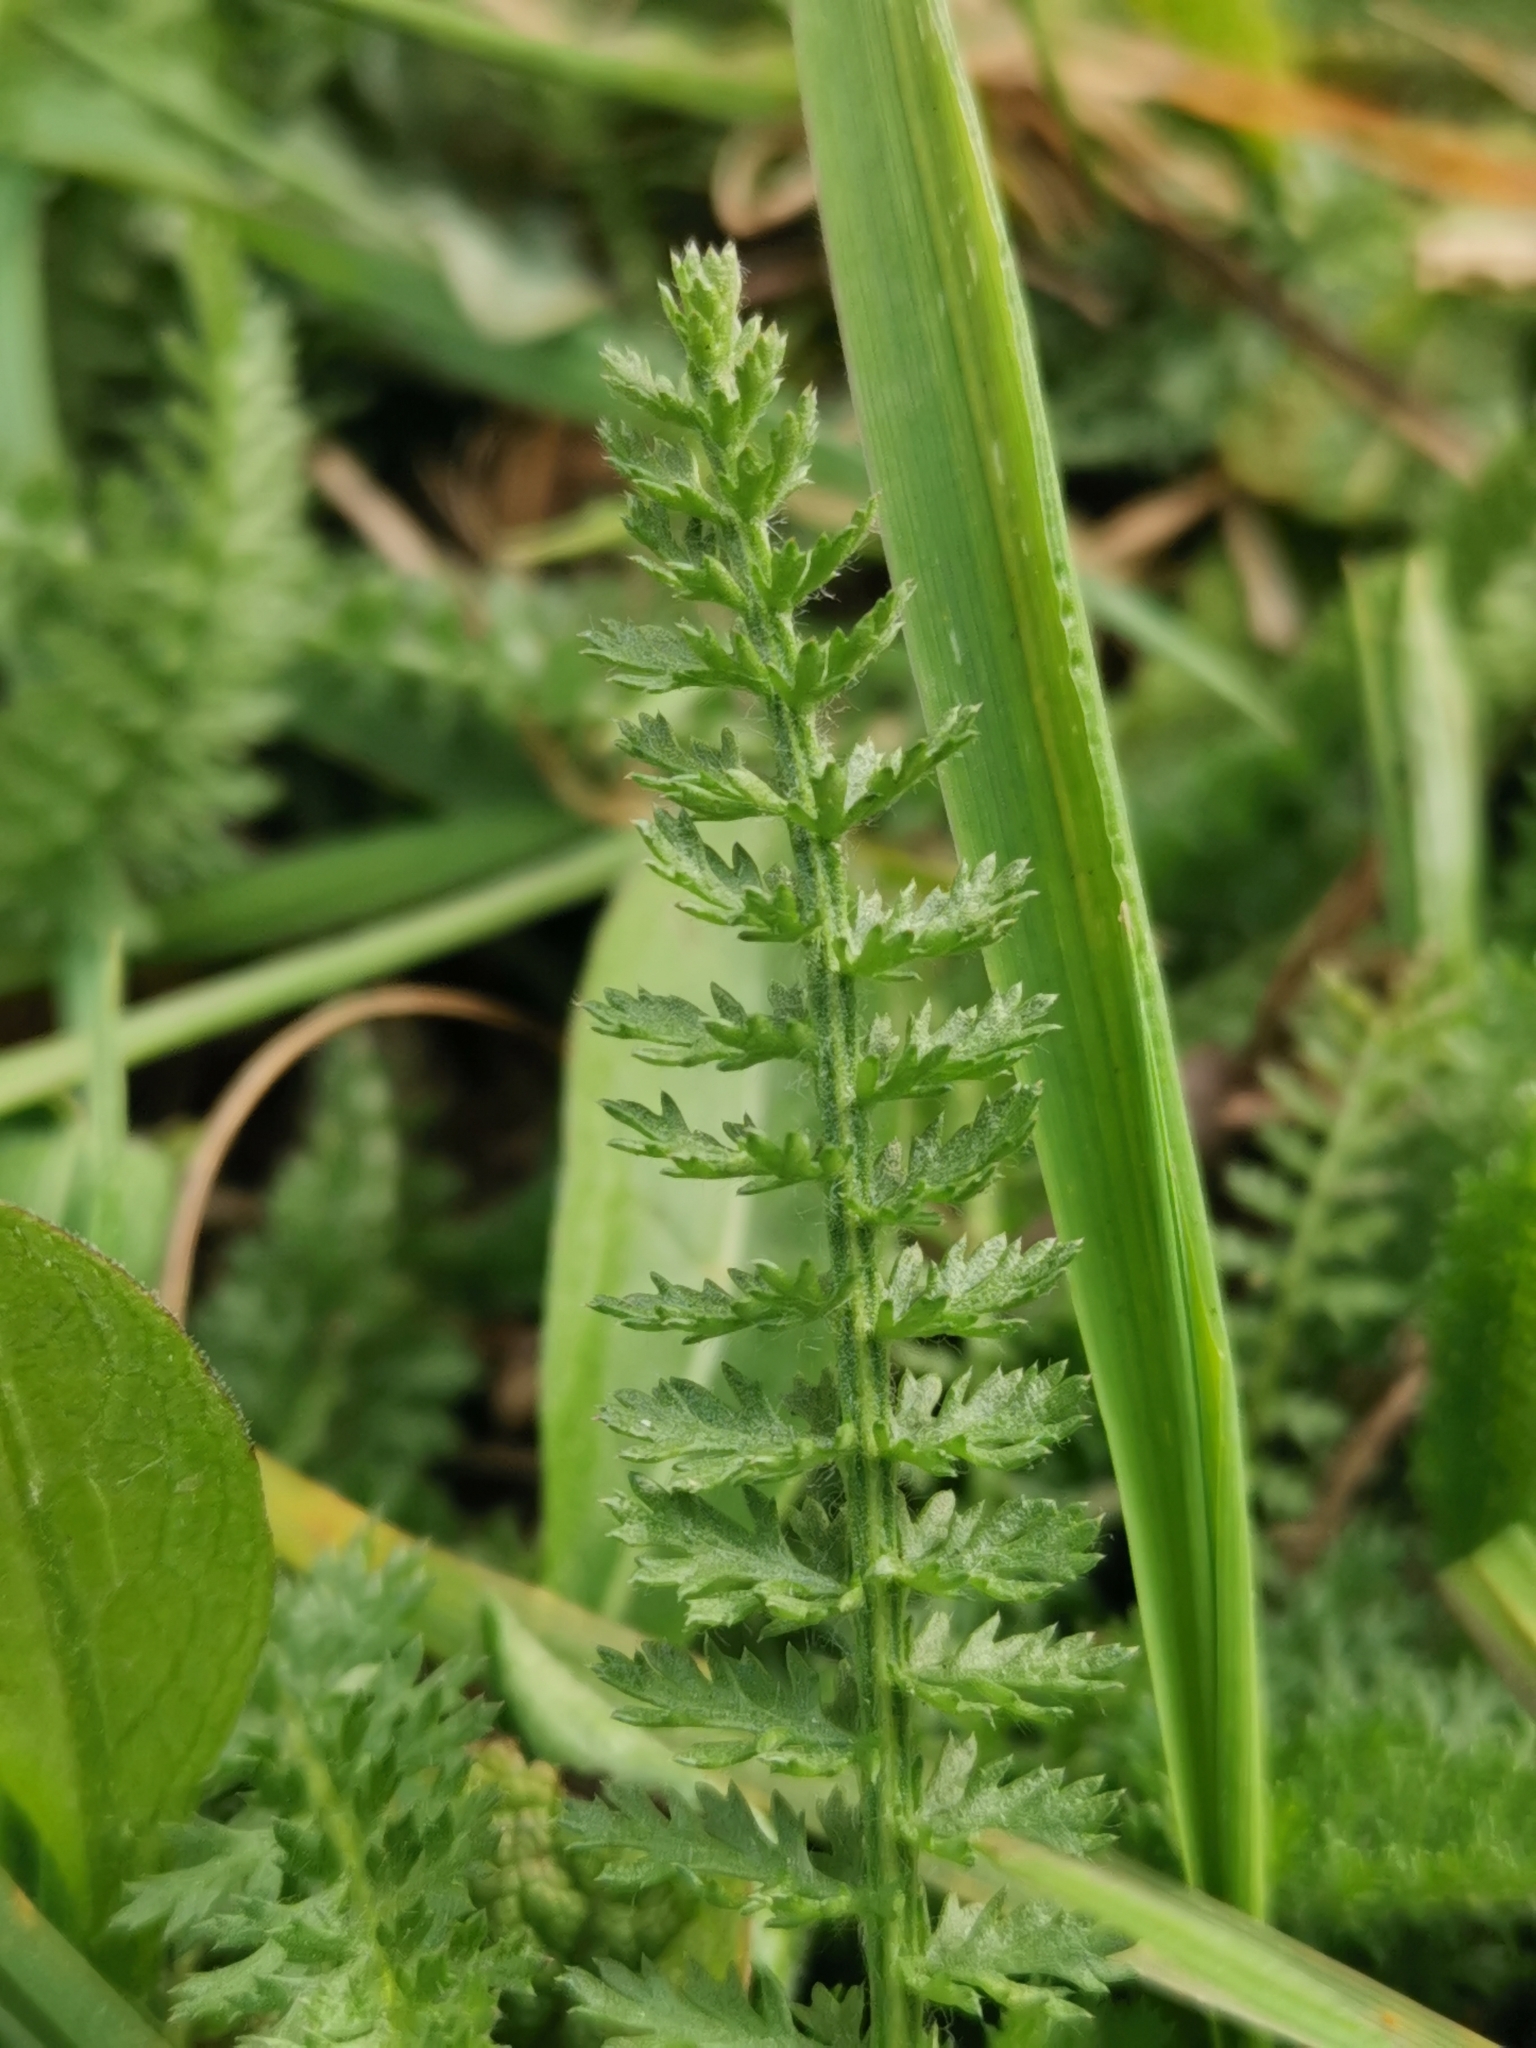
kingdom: Plantae
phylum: Tracheophyta
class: Magnoliopsida
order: Asterales
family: Asteraceae
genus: Achillea
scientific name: Achillea millefolium
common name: Yarrow
